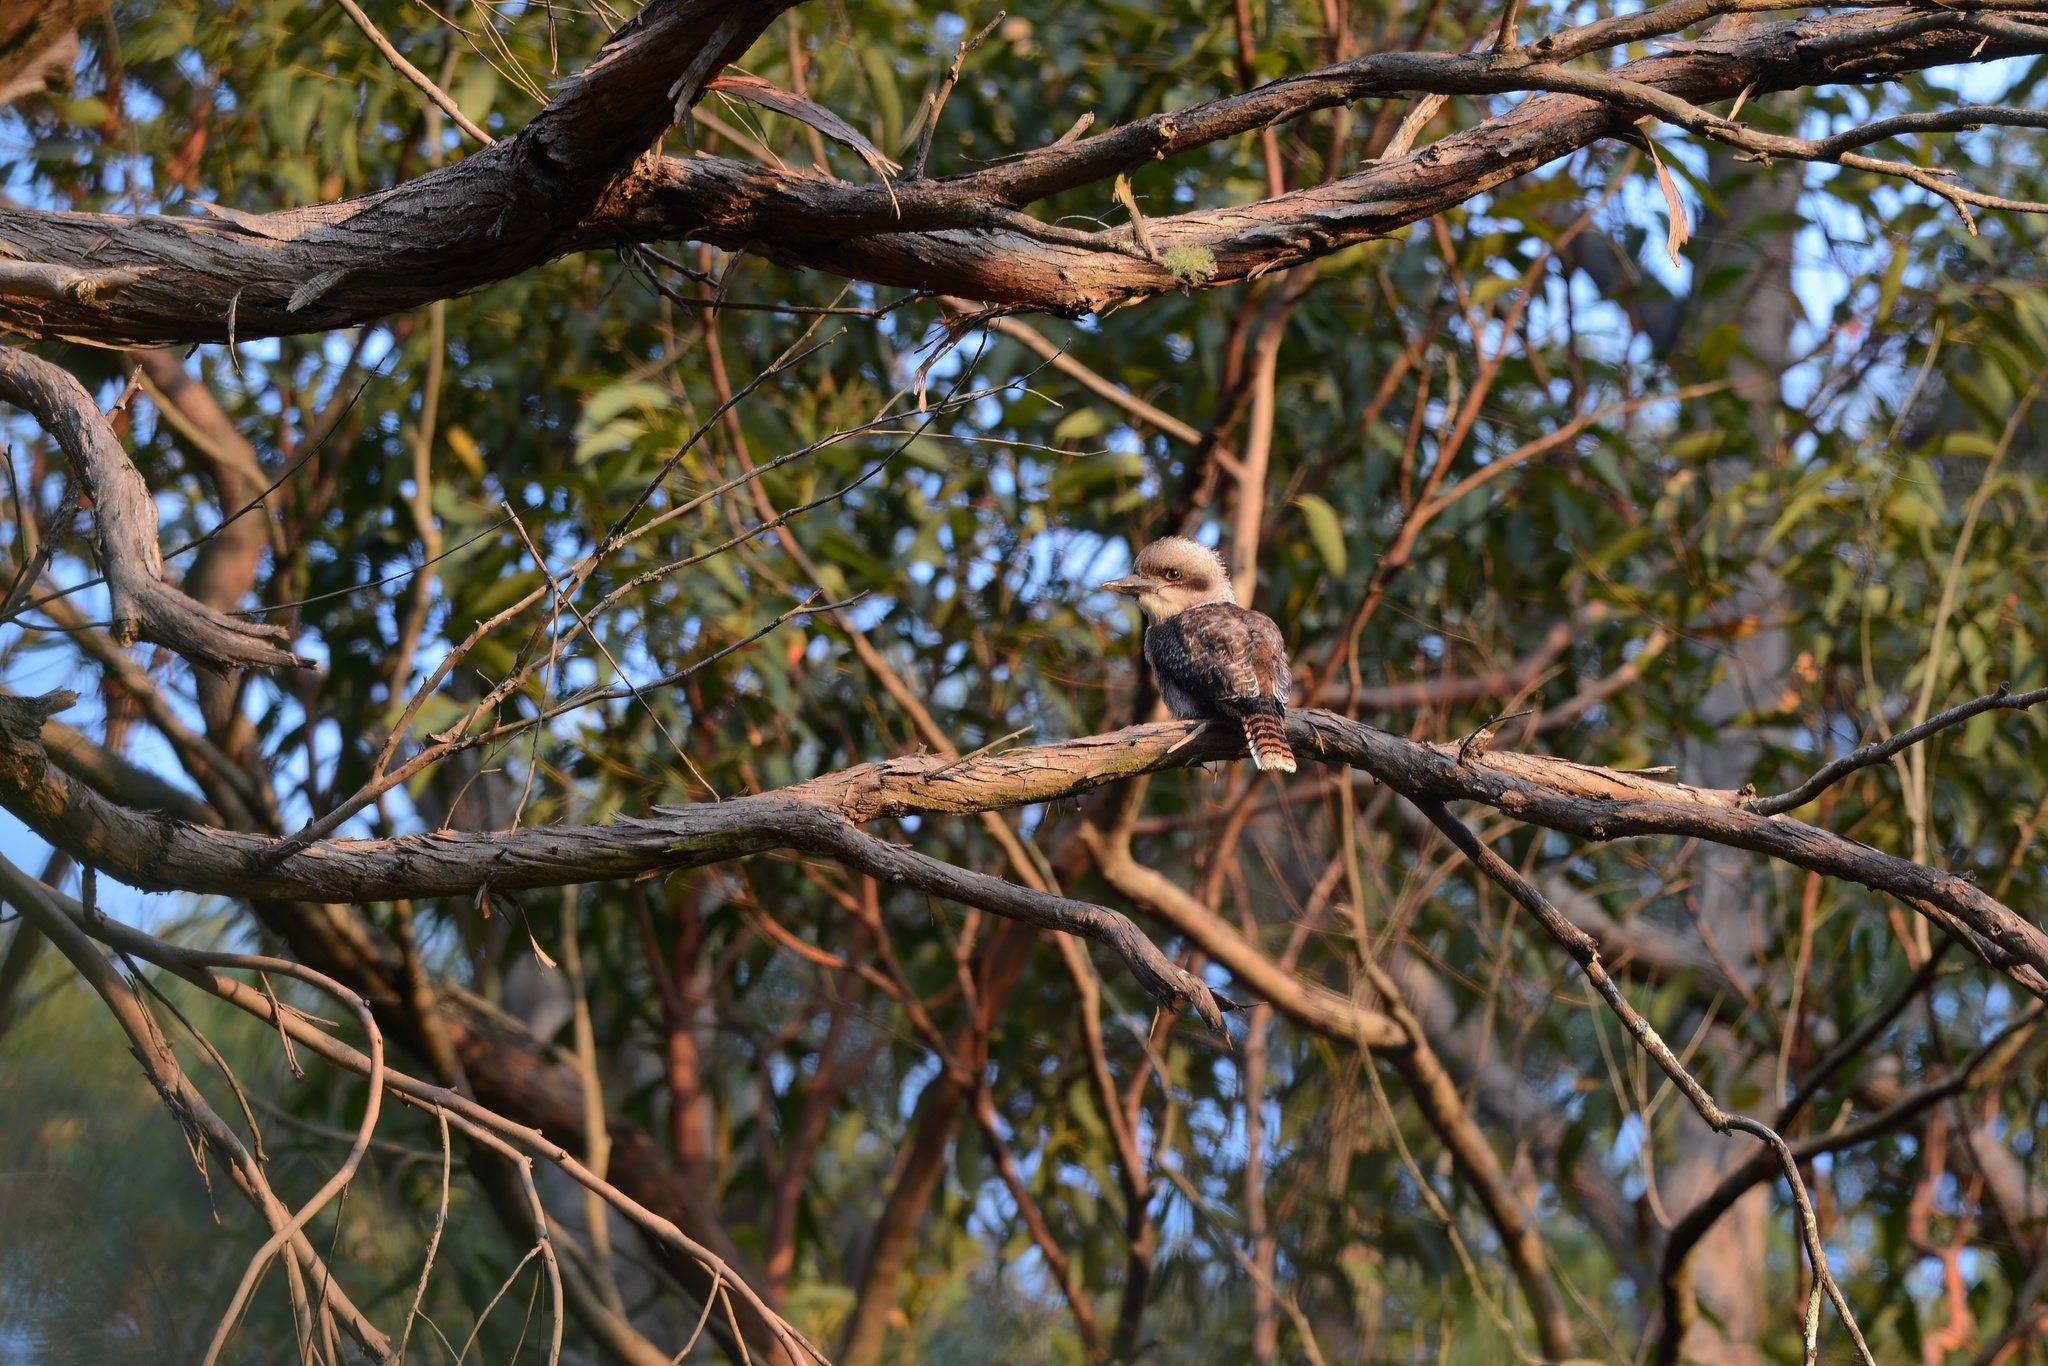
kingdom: Animalia
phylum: Chordata
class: Aves
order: Coraciiformes
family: Alcedinidae
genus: Dacelo
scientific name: Dacelo novaeguineae
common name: Laughing kookaburra
